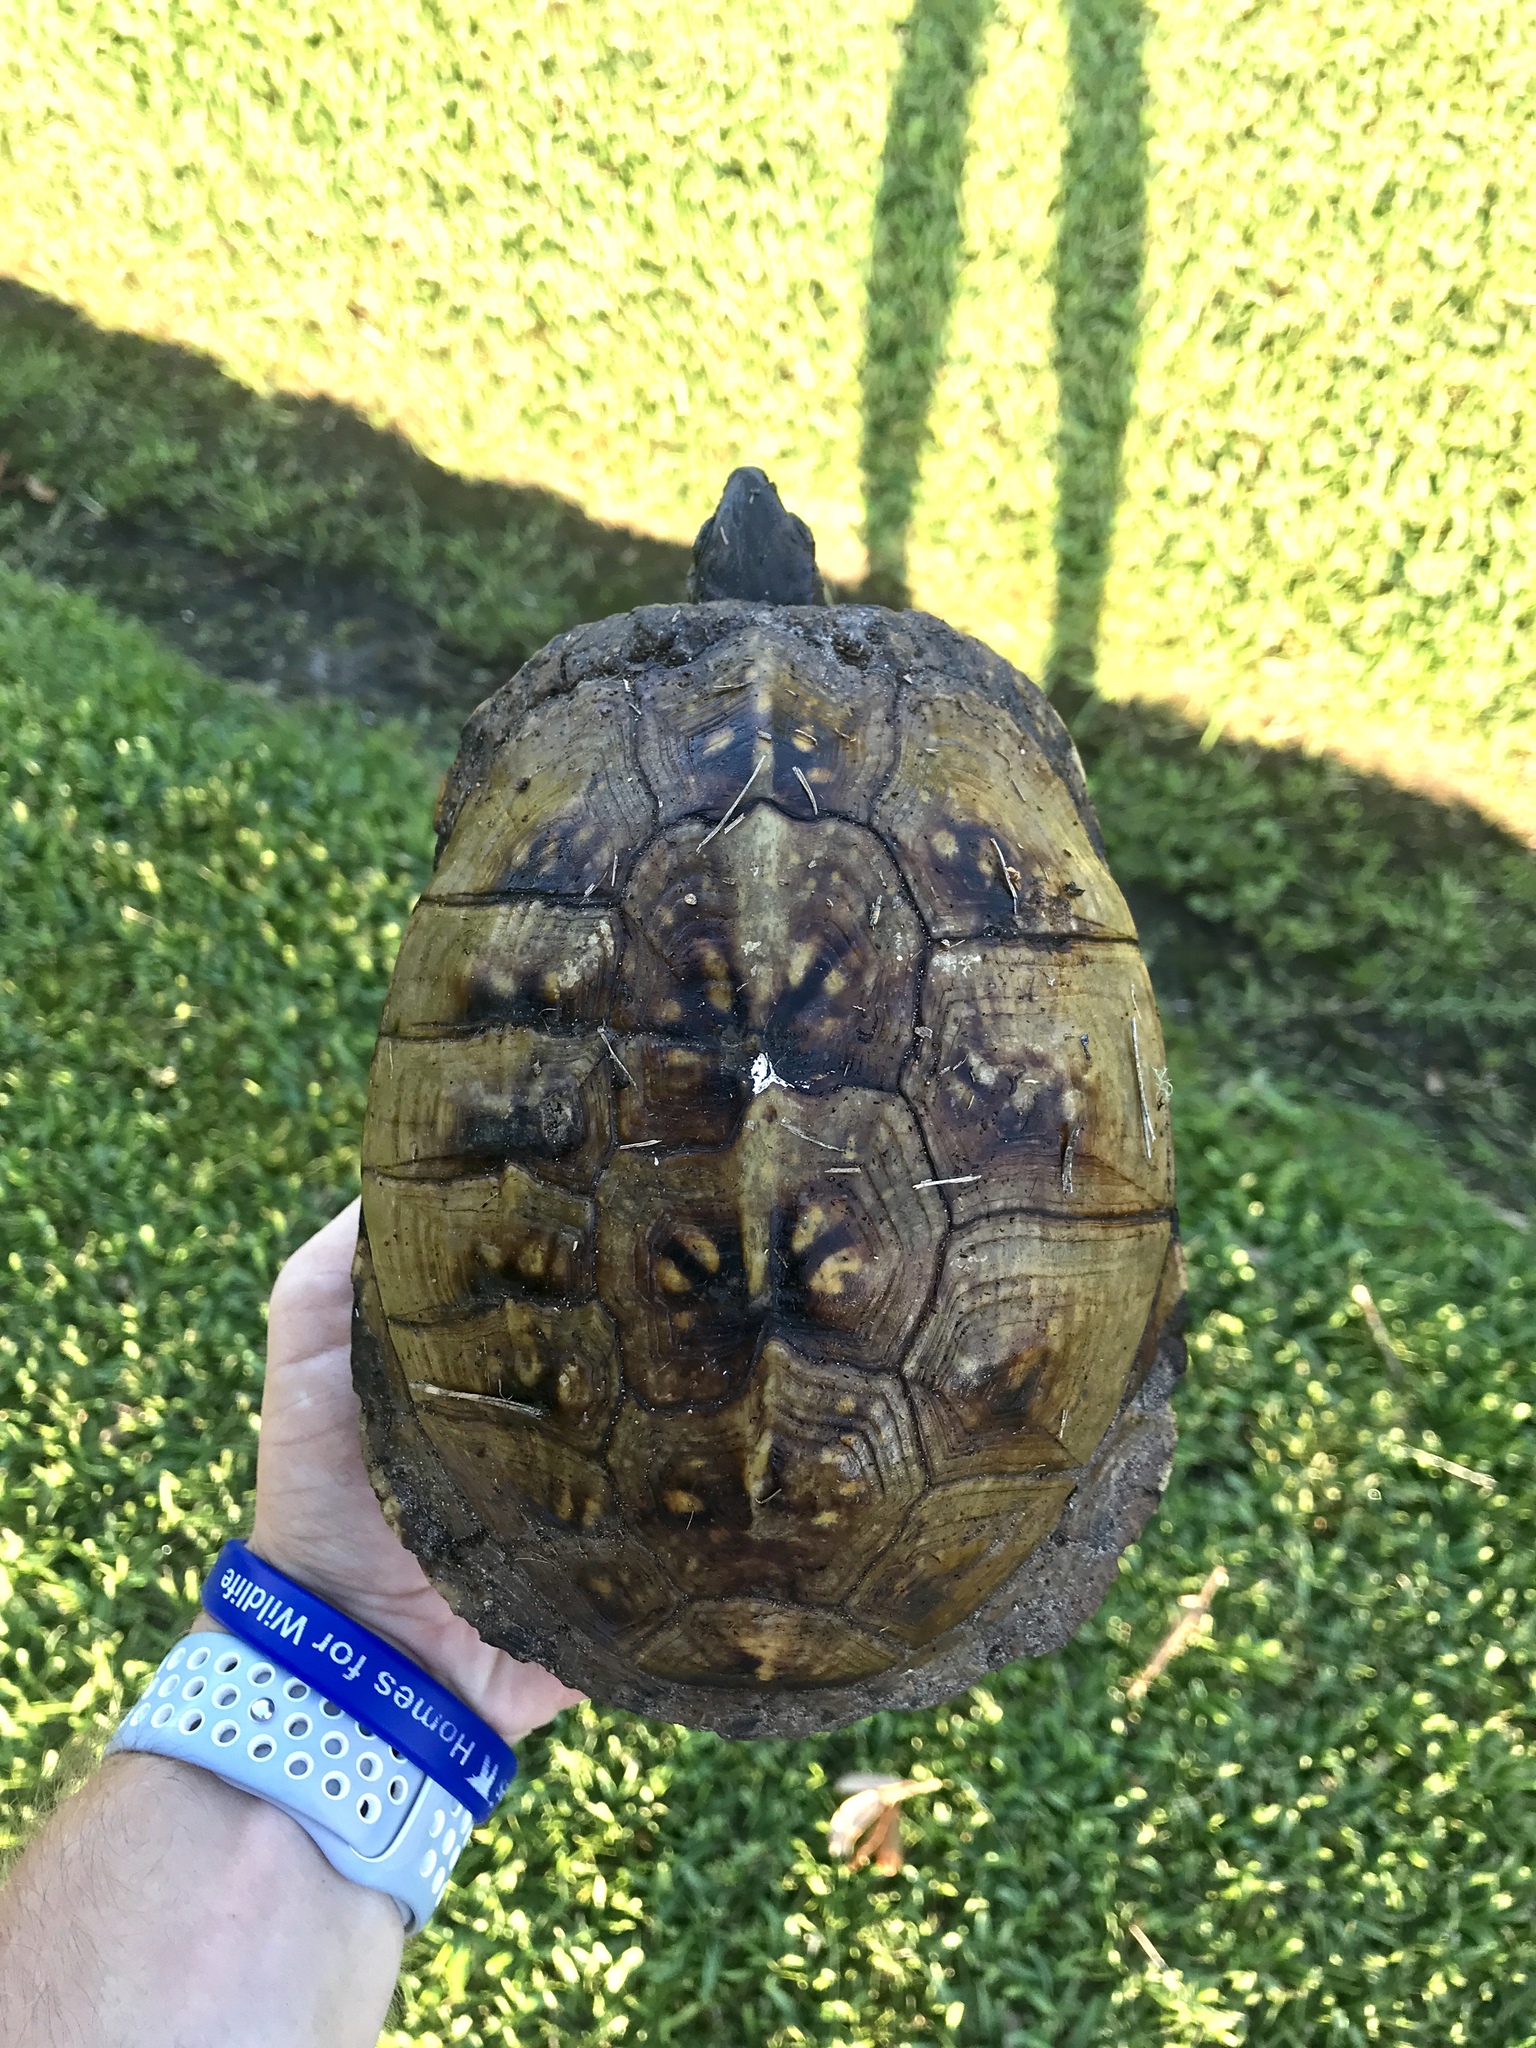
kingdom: Animalia
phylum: Chordata
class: Testudines
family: Emydidae
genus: Terrapene
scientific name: Terrapene carolina
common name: Common box turtle
